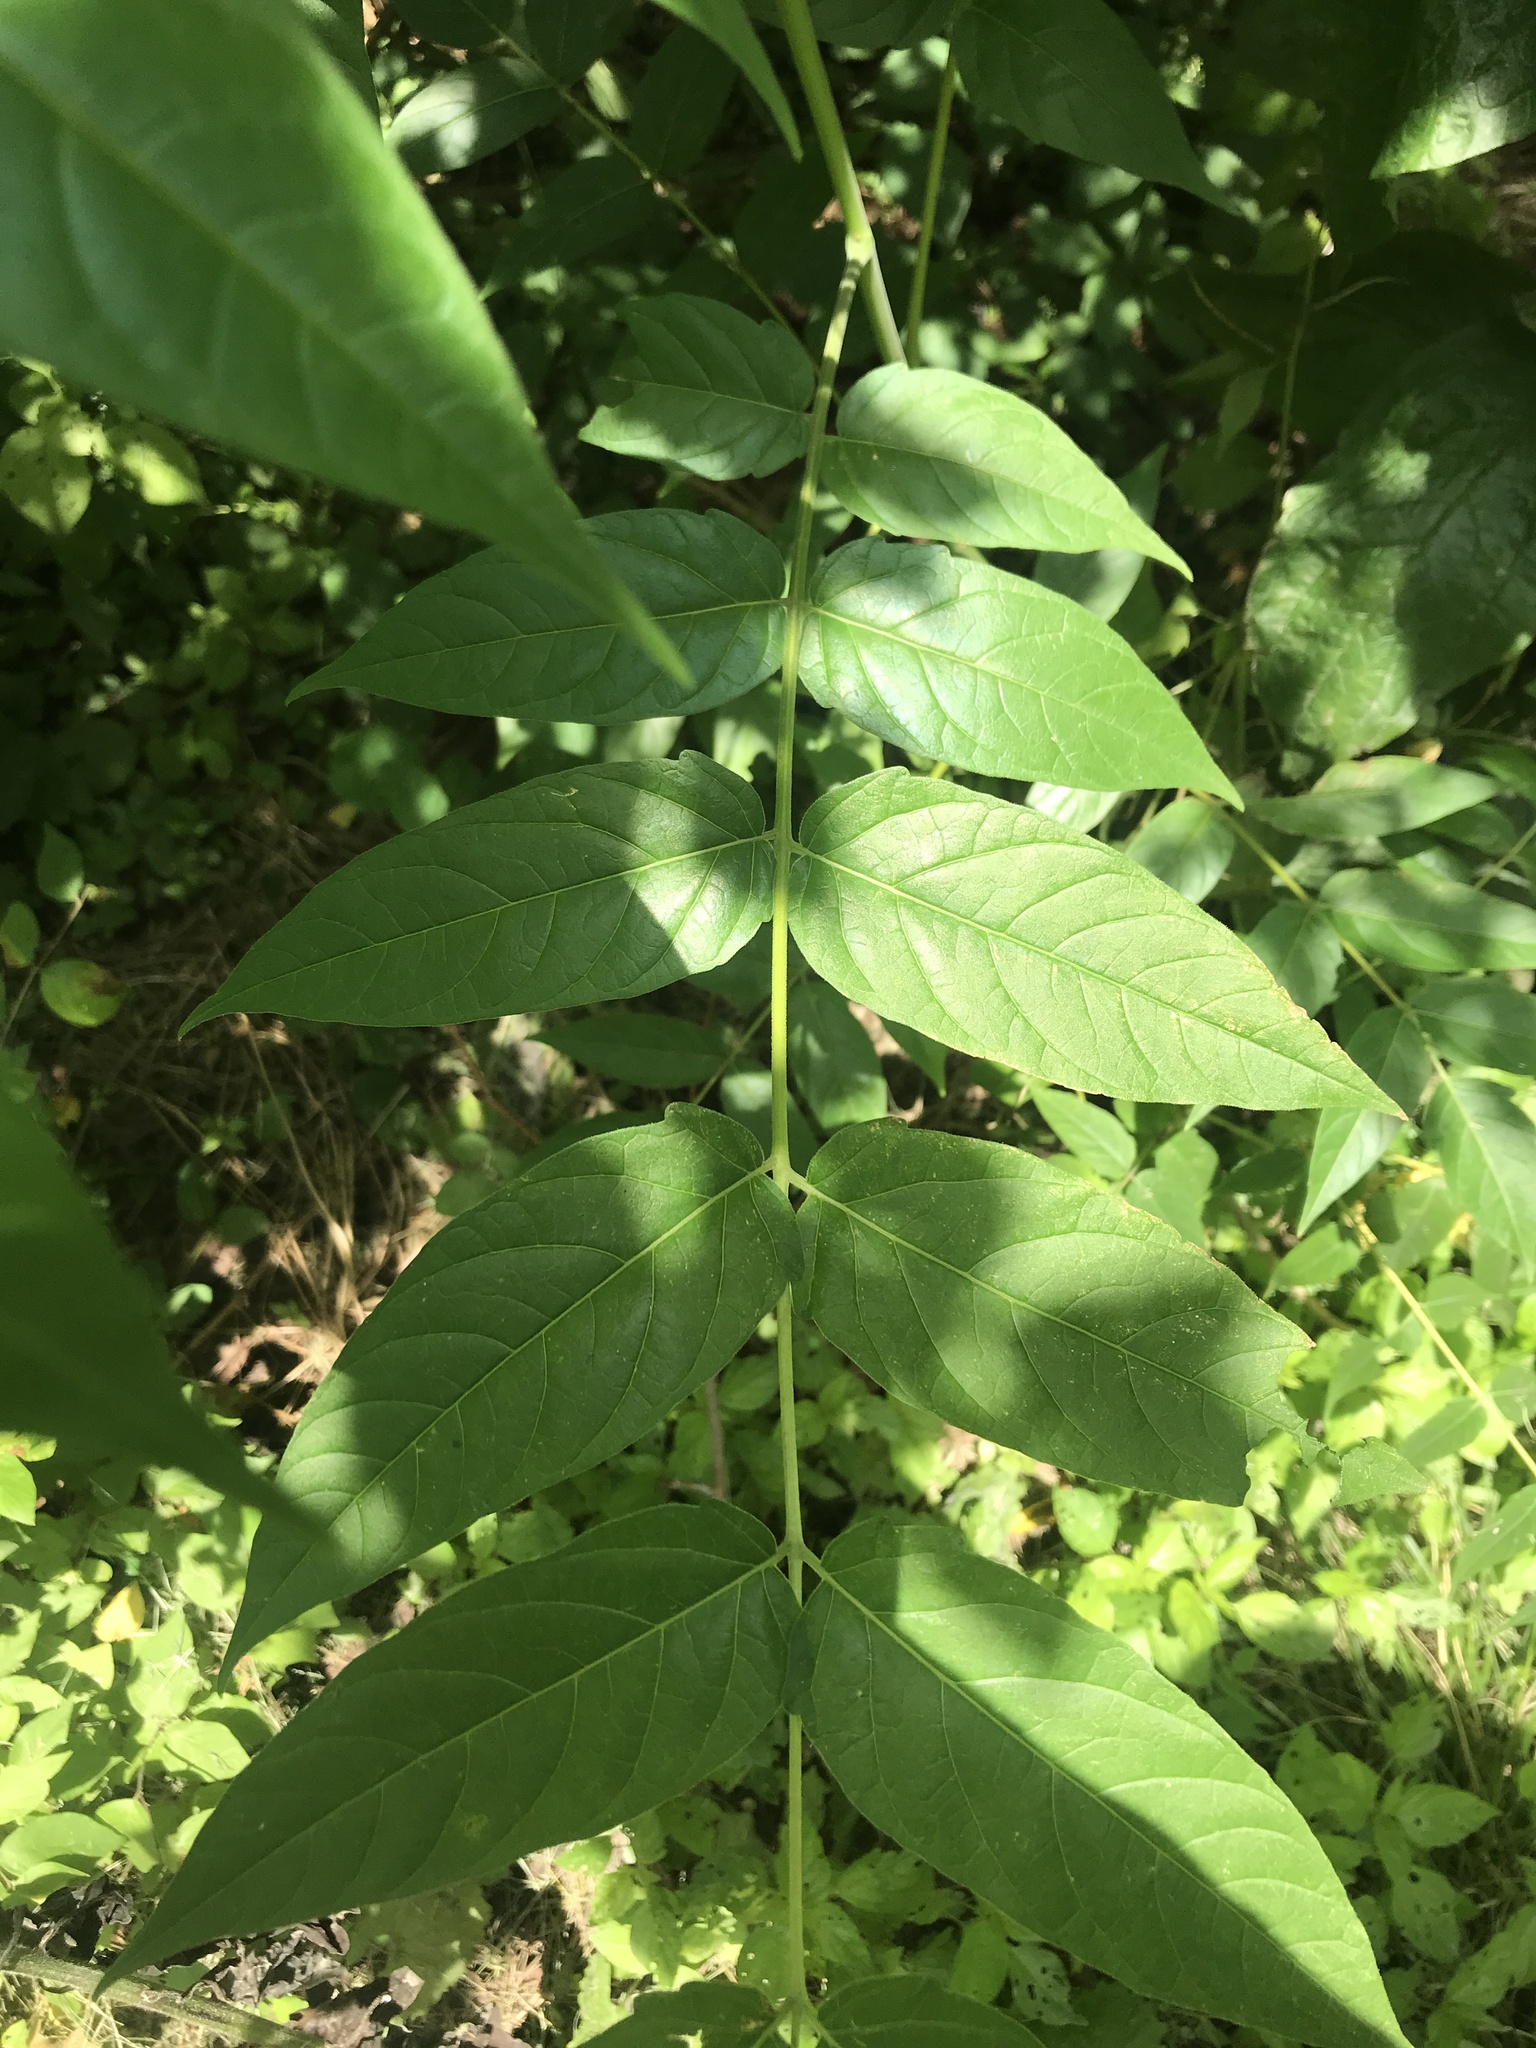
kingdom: Plantae
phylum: Tracheophyta
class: Magnoliopsida
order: Sapindales
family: Simaroubaceae
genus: Ailanthus
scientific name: Ailanthus altissima
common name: Tree-of-heaven
